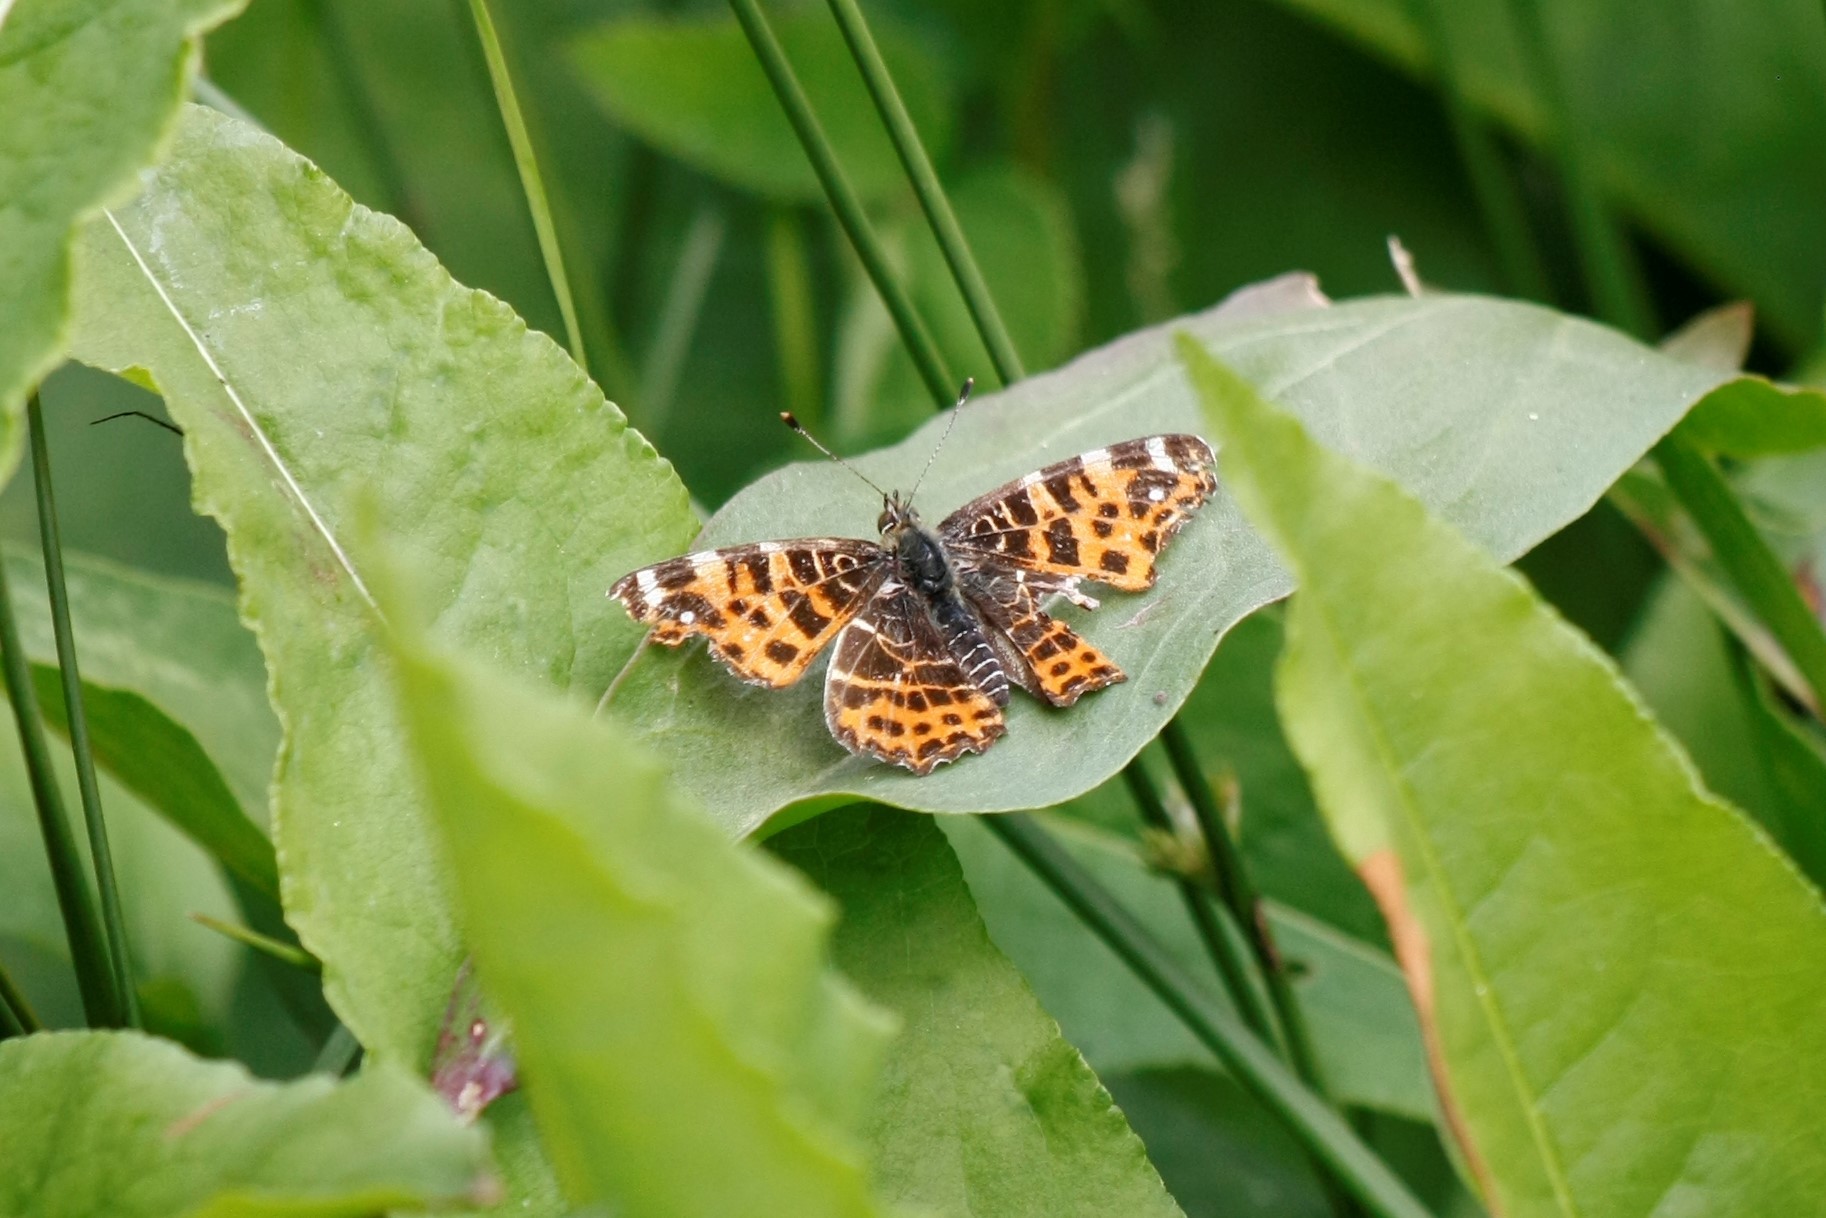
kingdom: Animalia
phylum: Arthropoda
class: Insecta
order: Lepidoptera
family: Nymphalidae
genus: Araschnia
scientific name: Araschnia levana
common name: Map butterfly
